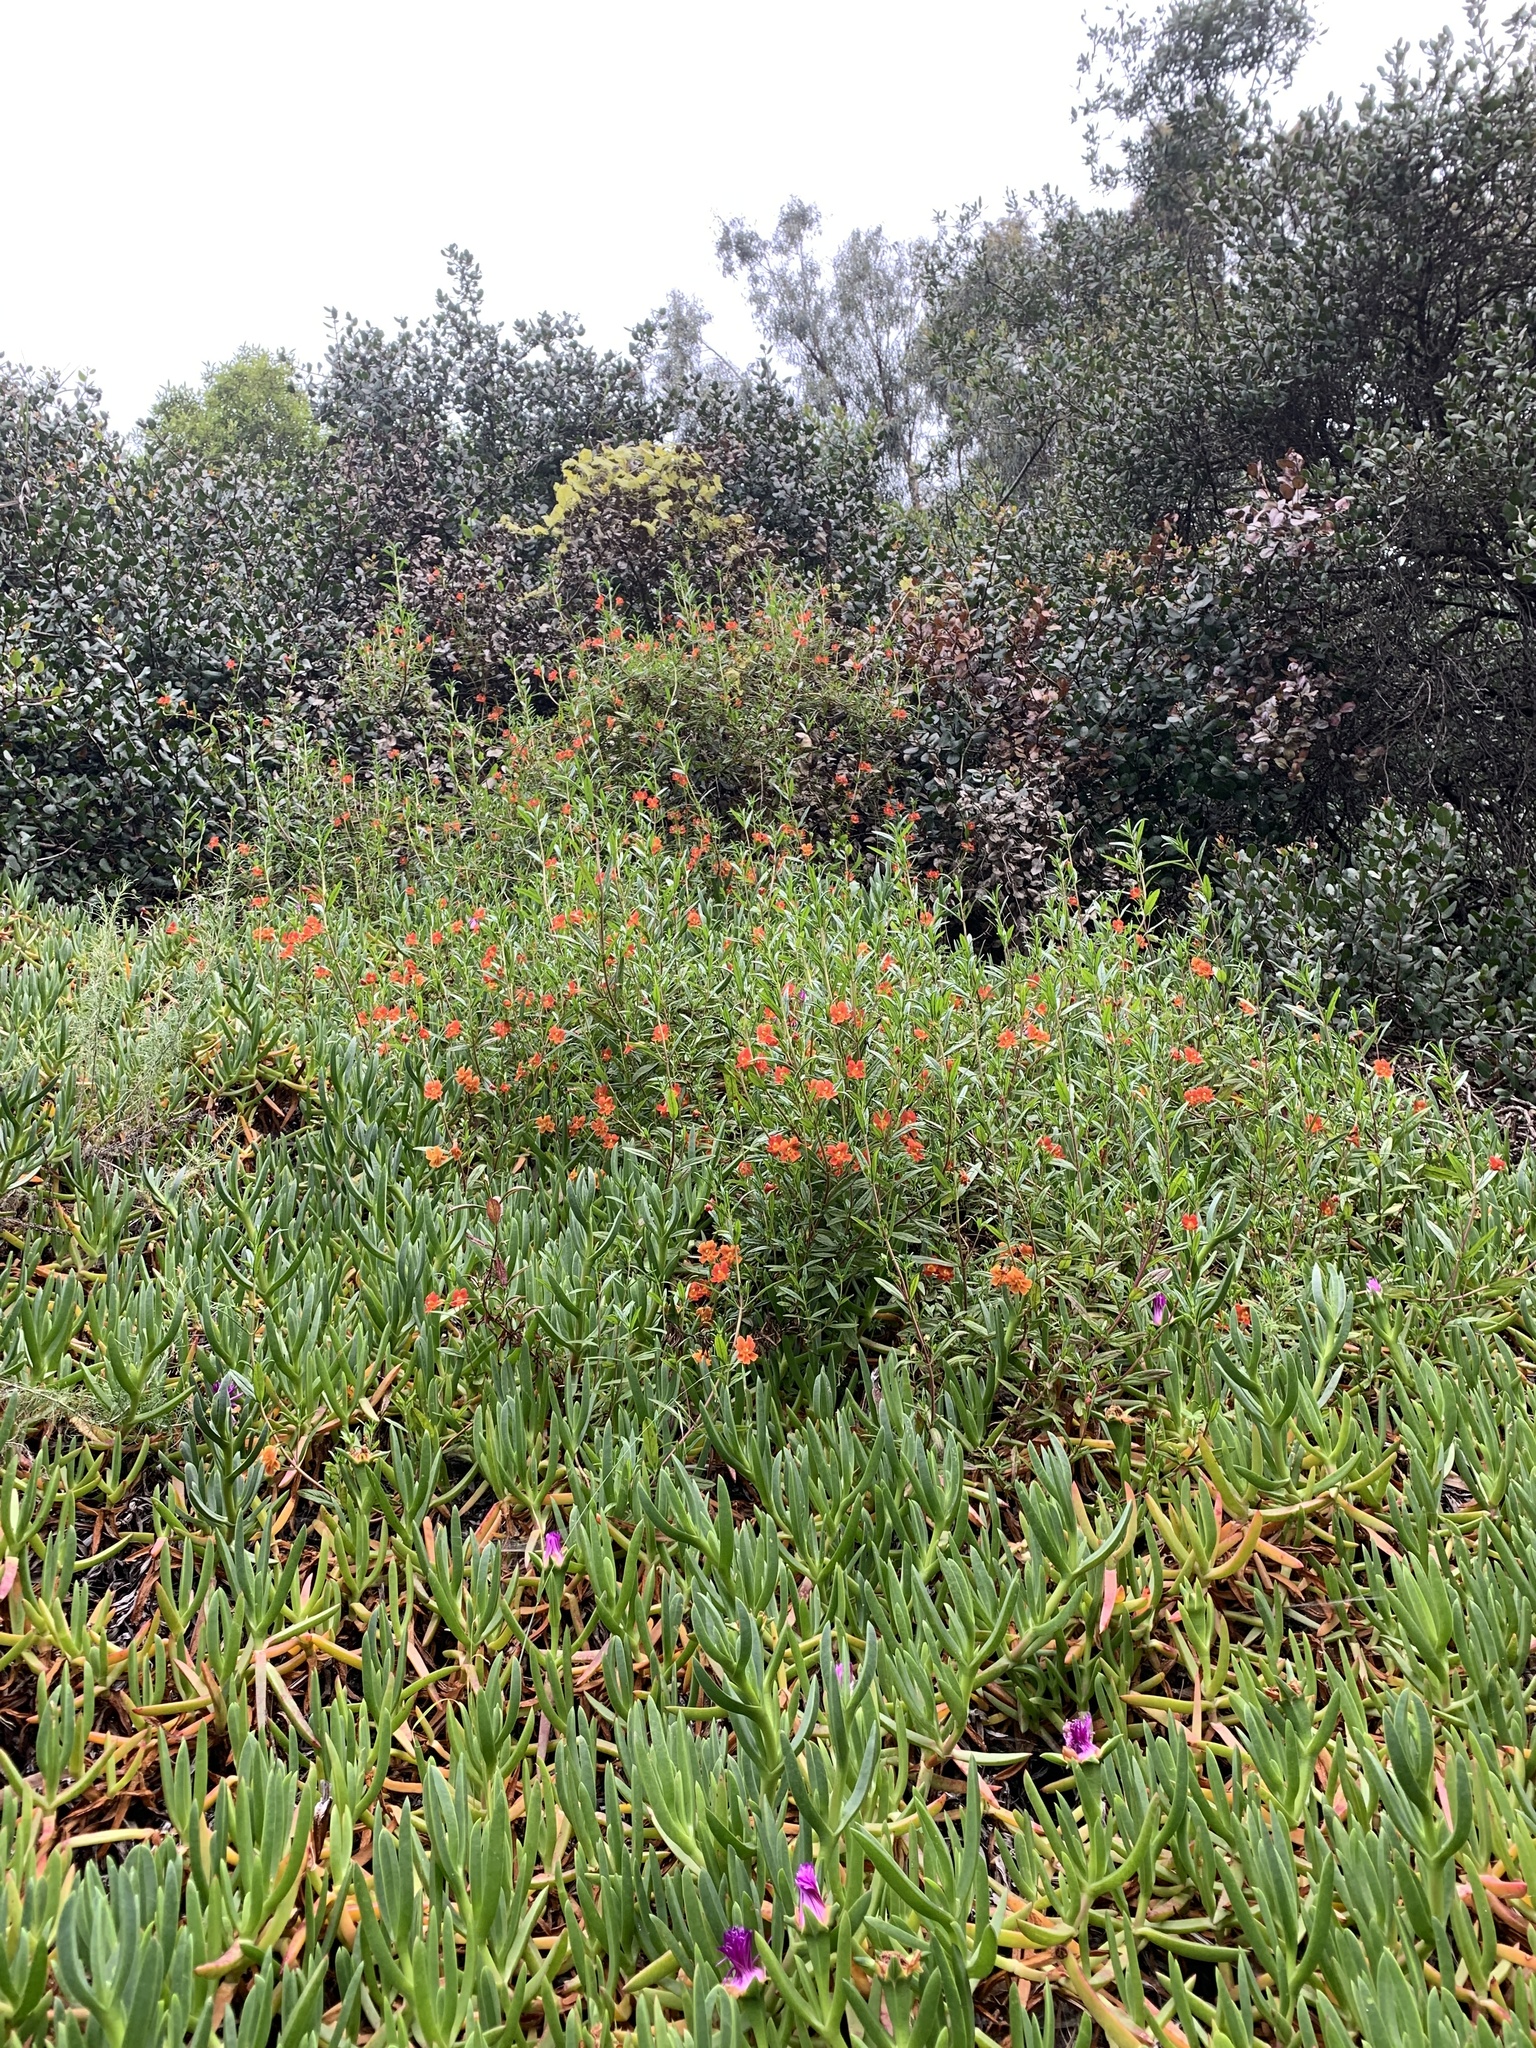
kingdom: Plantae
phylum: Tracheophyta
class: Magnoliopsida
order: Lamiales
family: Phrymaceae
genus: Diplacus
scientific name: Diplacus puniceus
